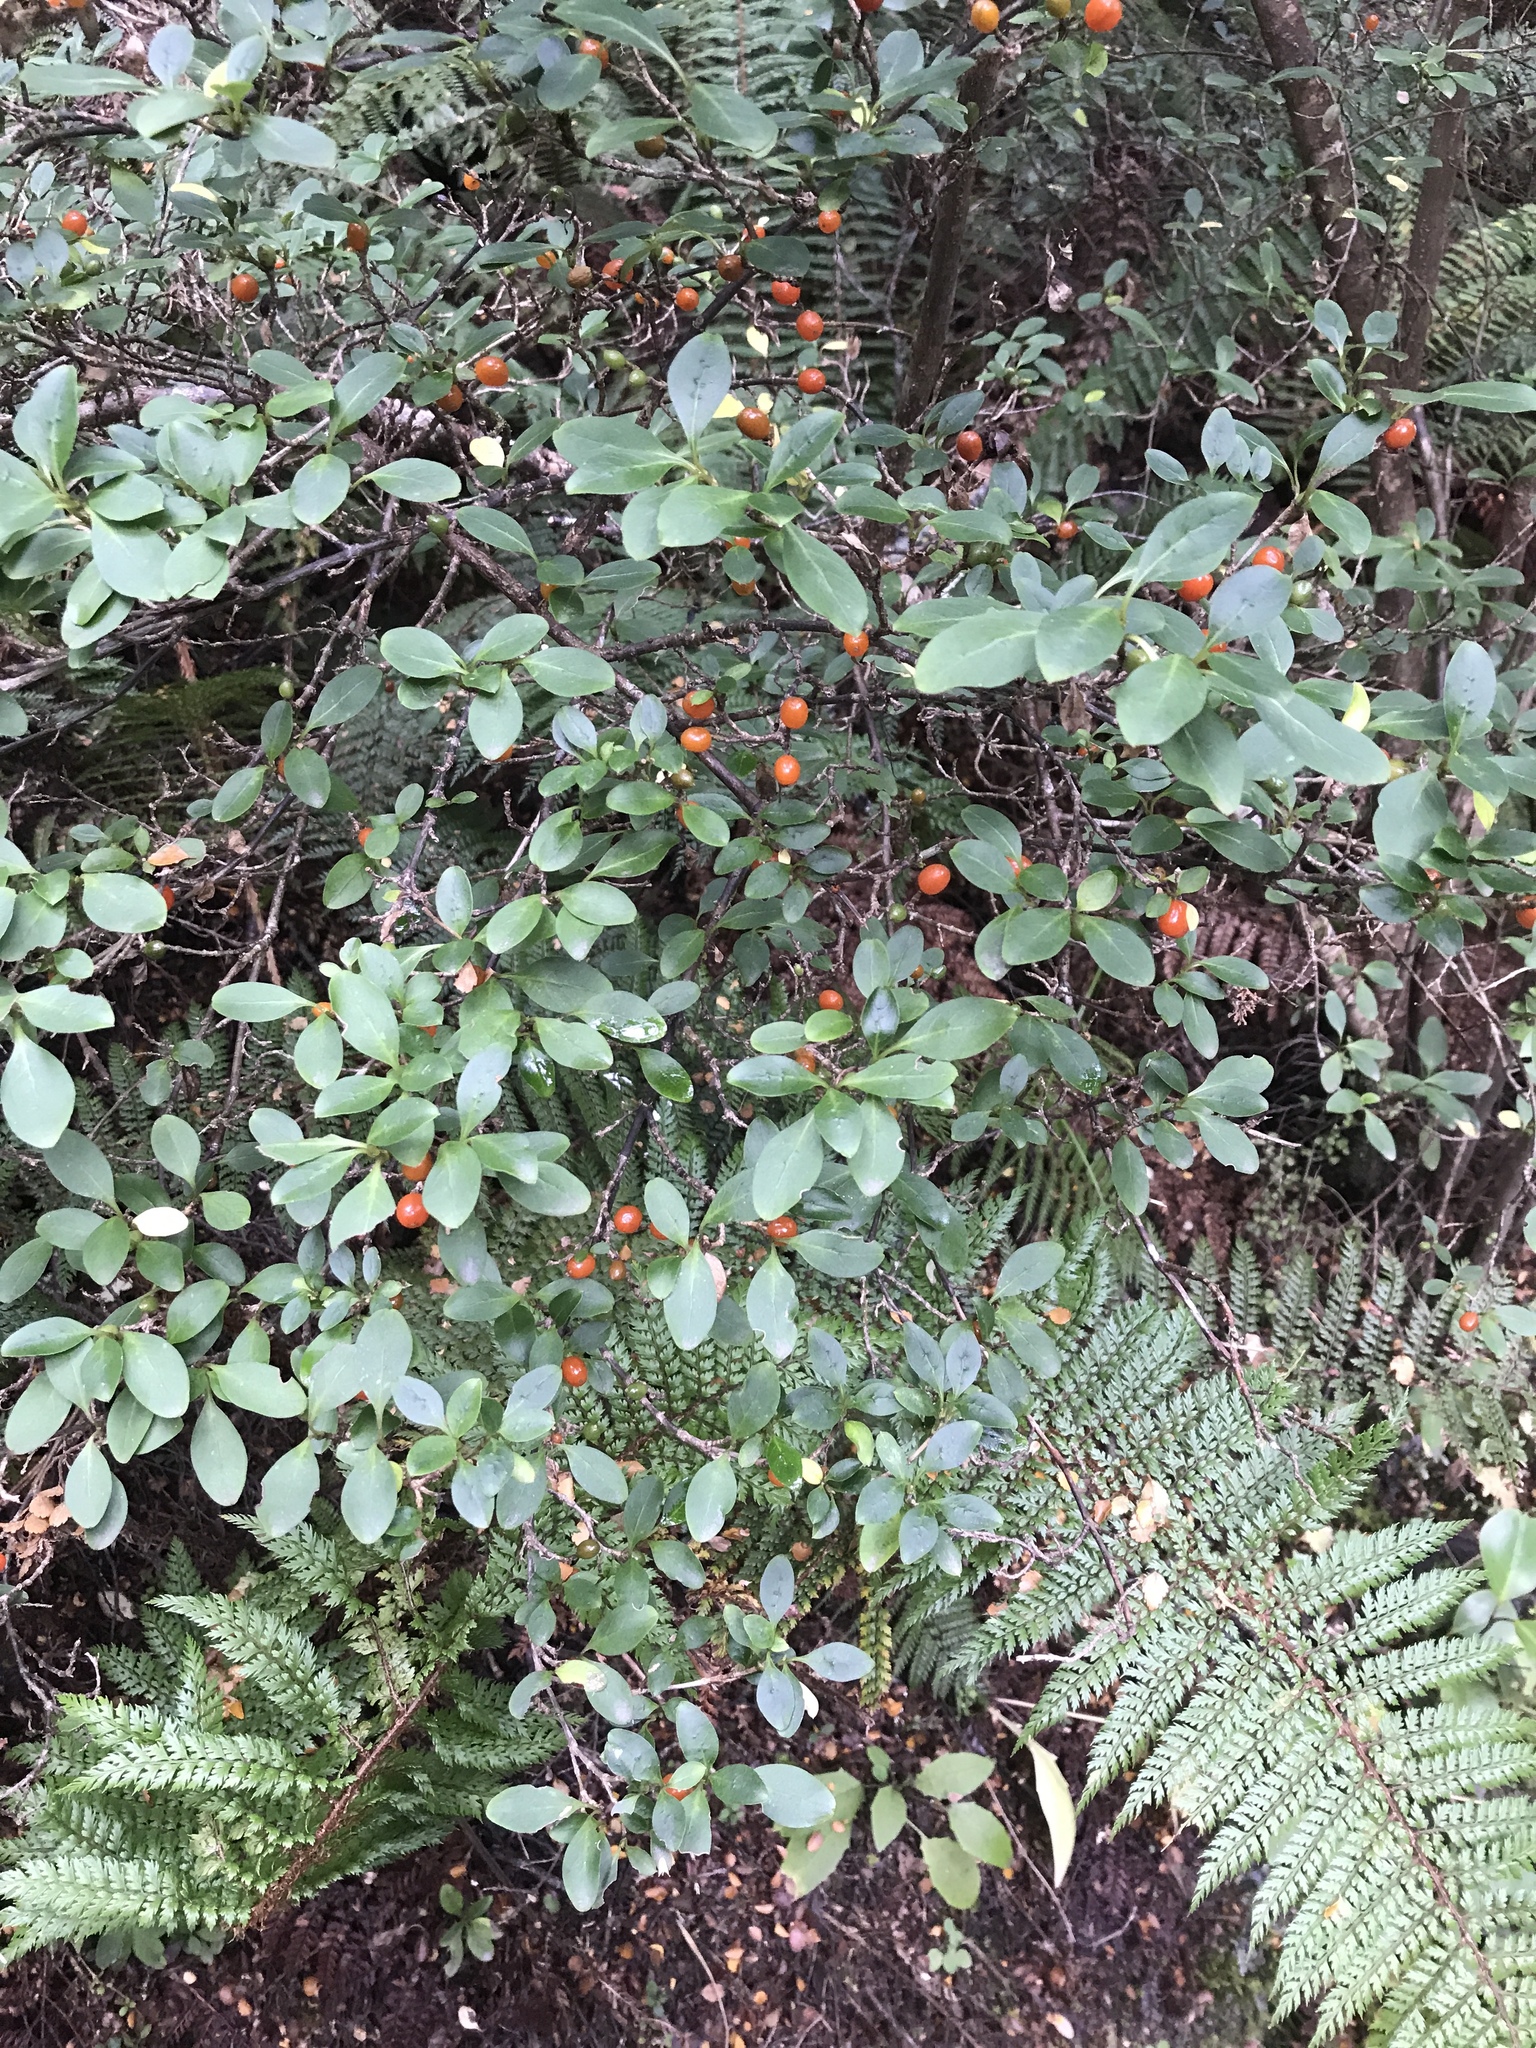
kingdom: Plantae
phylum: Tracheophyta
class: Magnoliopsida
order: Gentianales
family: Rubiaceae
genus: Coprosma
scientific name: Coprosma foetidissima
